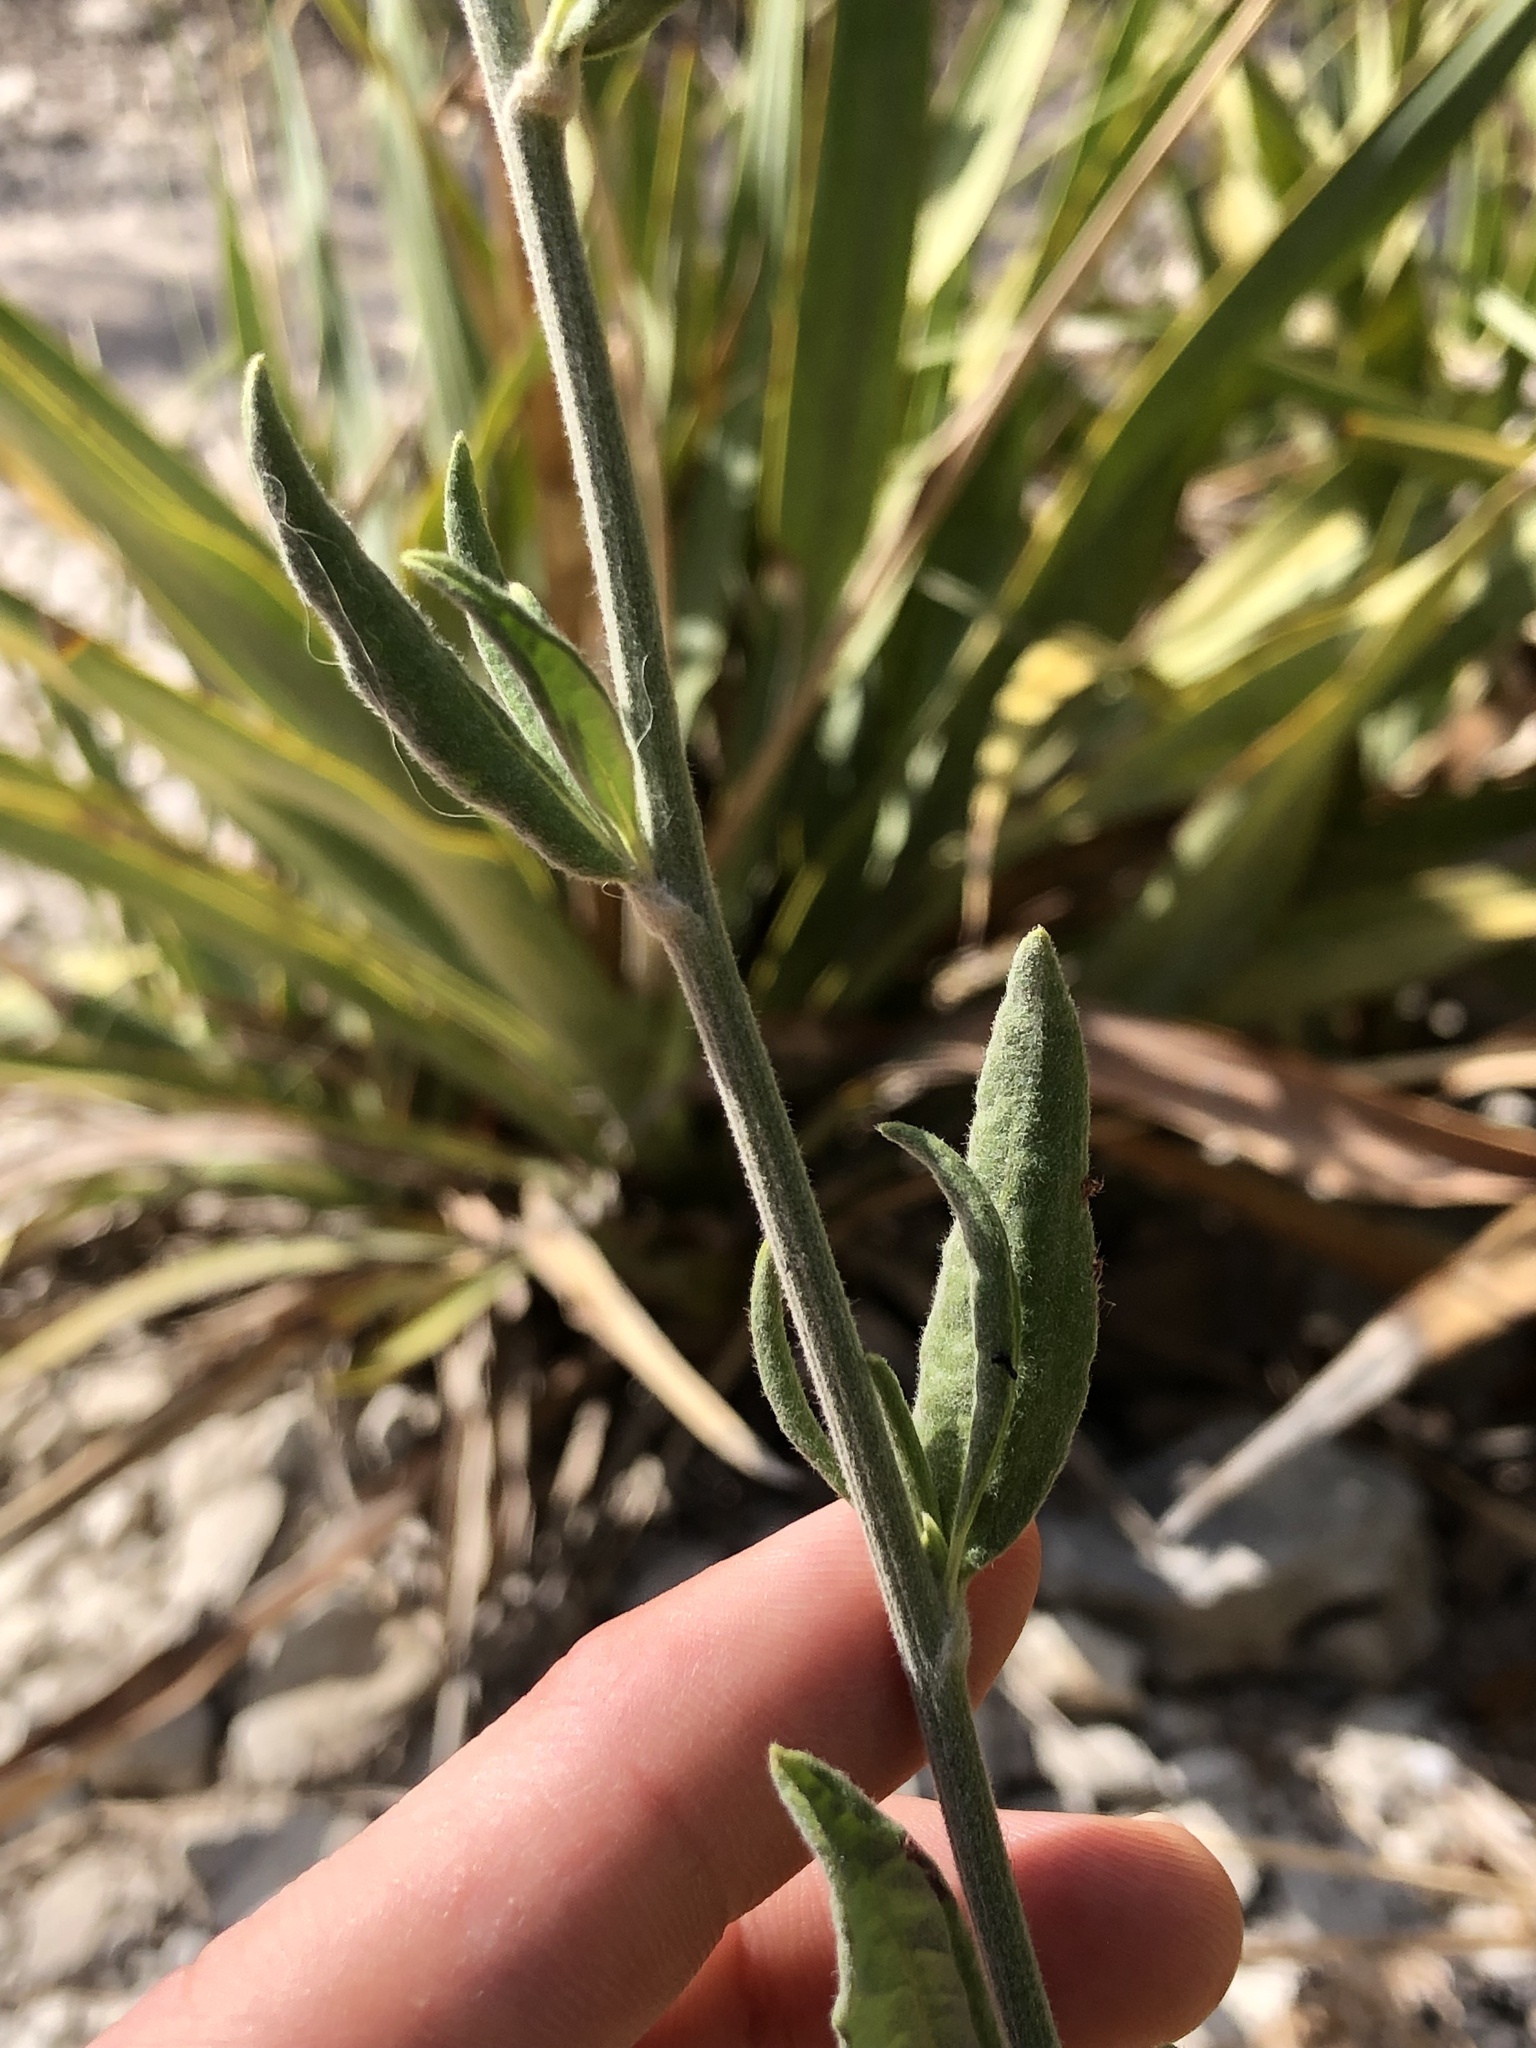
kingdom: Plantae
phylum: Tracheophyta
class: Magnoliopsida
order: Caryophyllales
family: Polygonaceae
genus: Eriogonum
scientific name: Eriogonum longifolium
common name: Longleaf wild buckwheat
